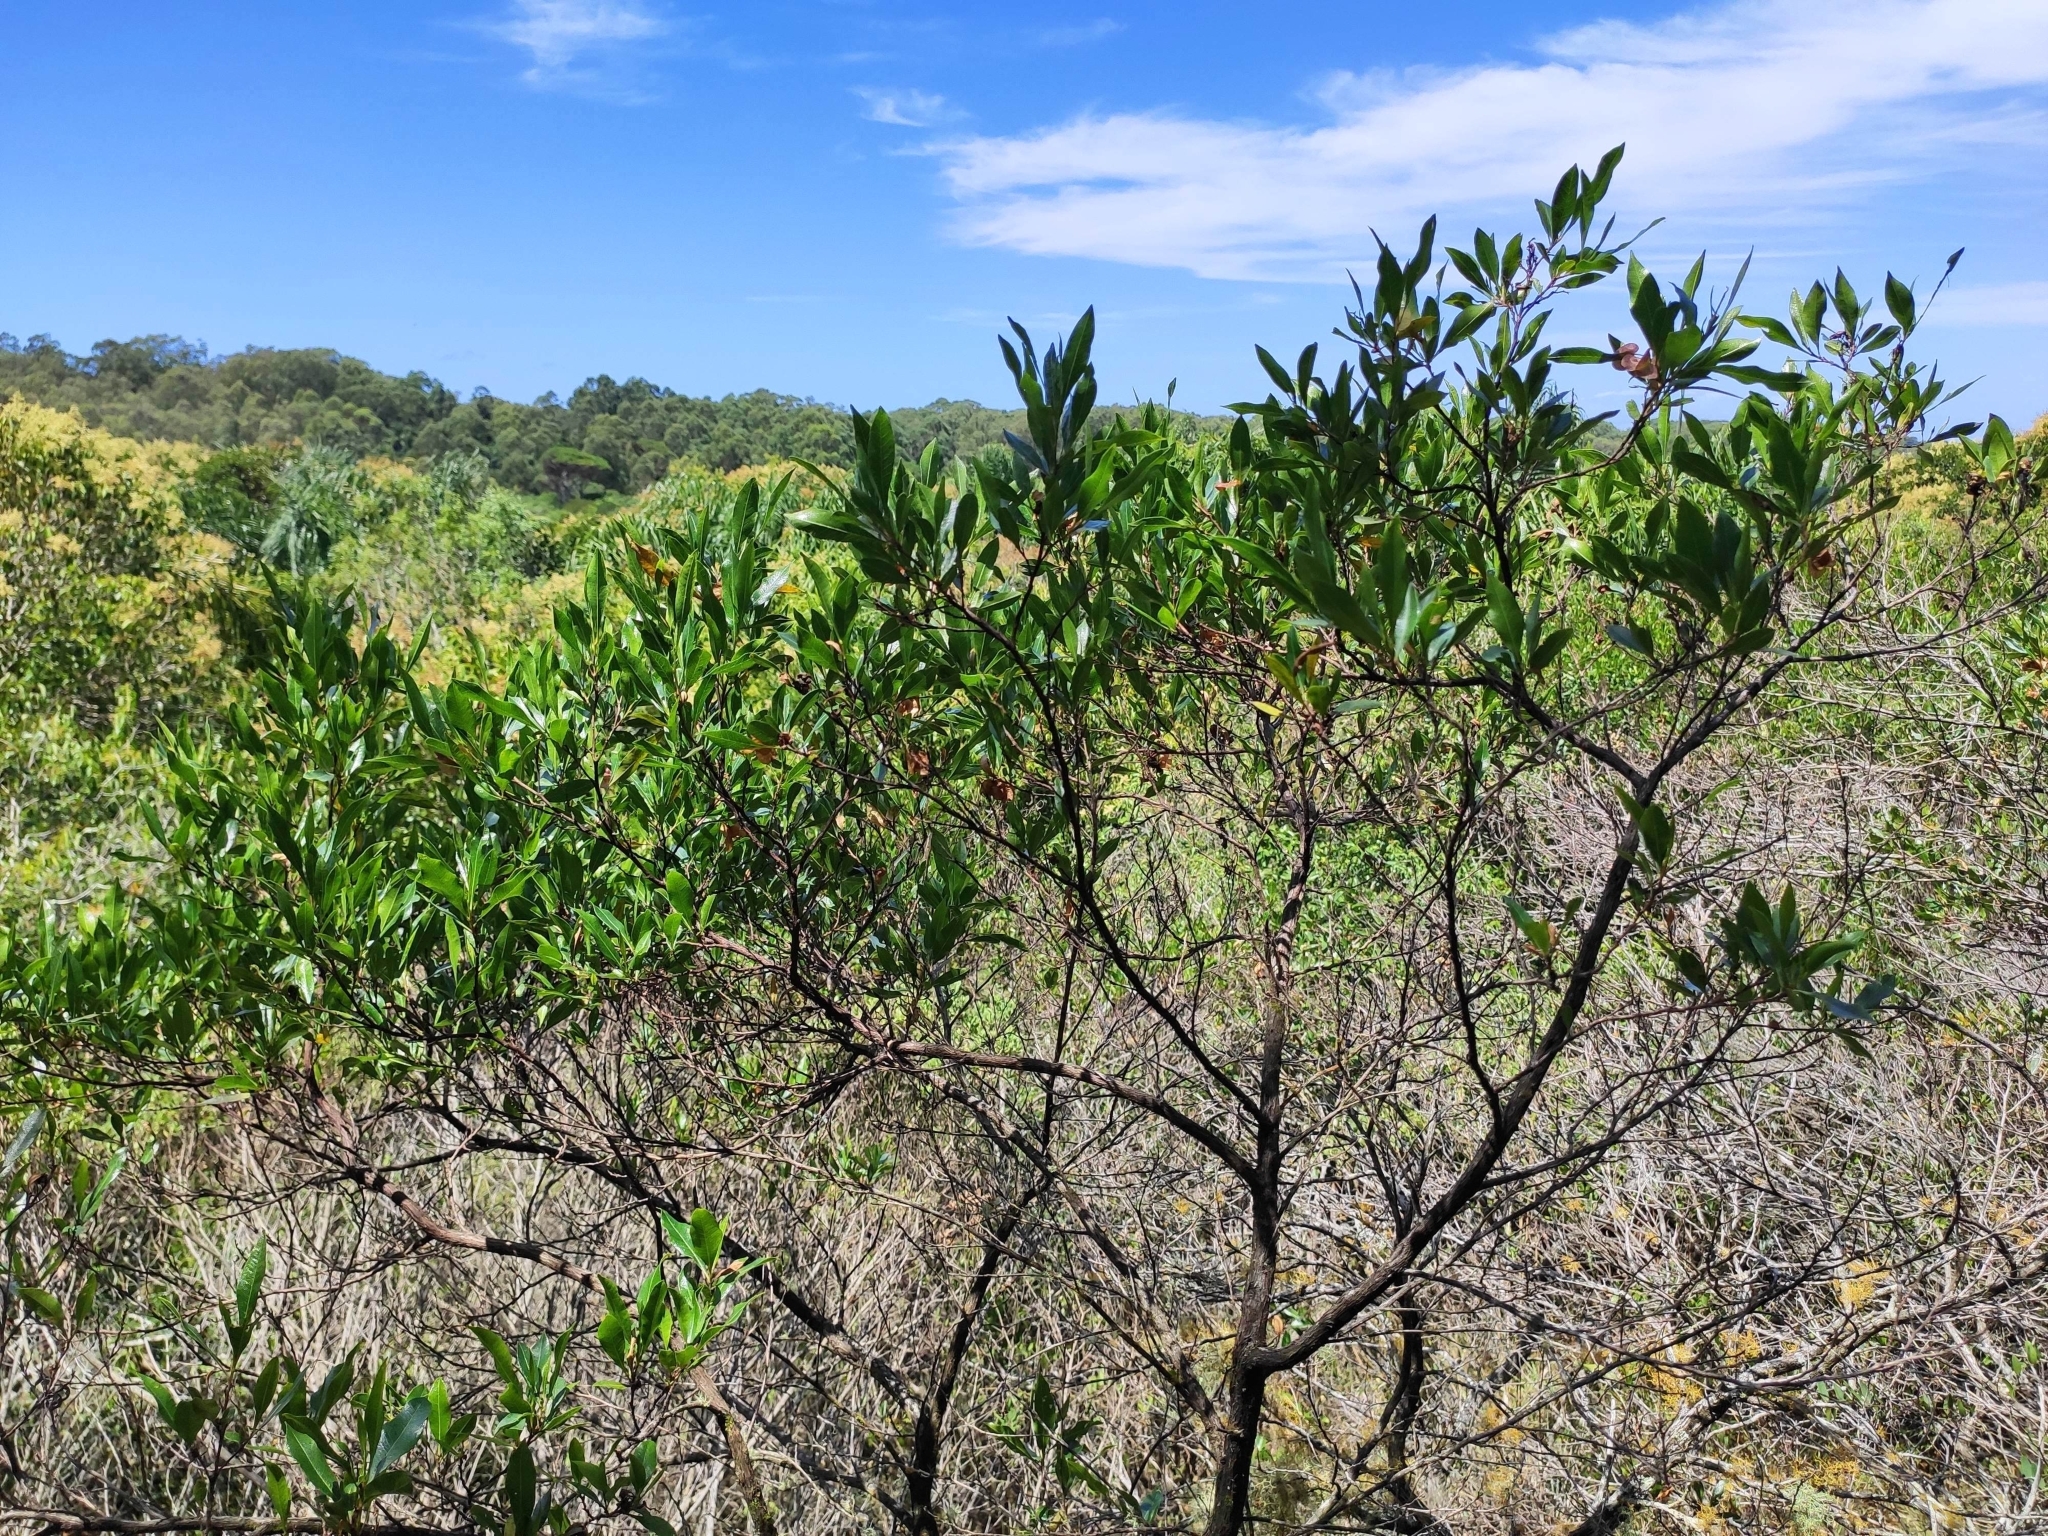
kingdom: Plantae
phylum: Tracheophyta
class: Magnoliopsida
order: Sapindales
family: Sapindaceae
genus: Dodonaea
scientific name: Dodonaea viscosa
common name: Hopbush
